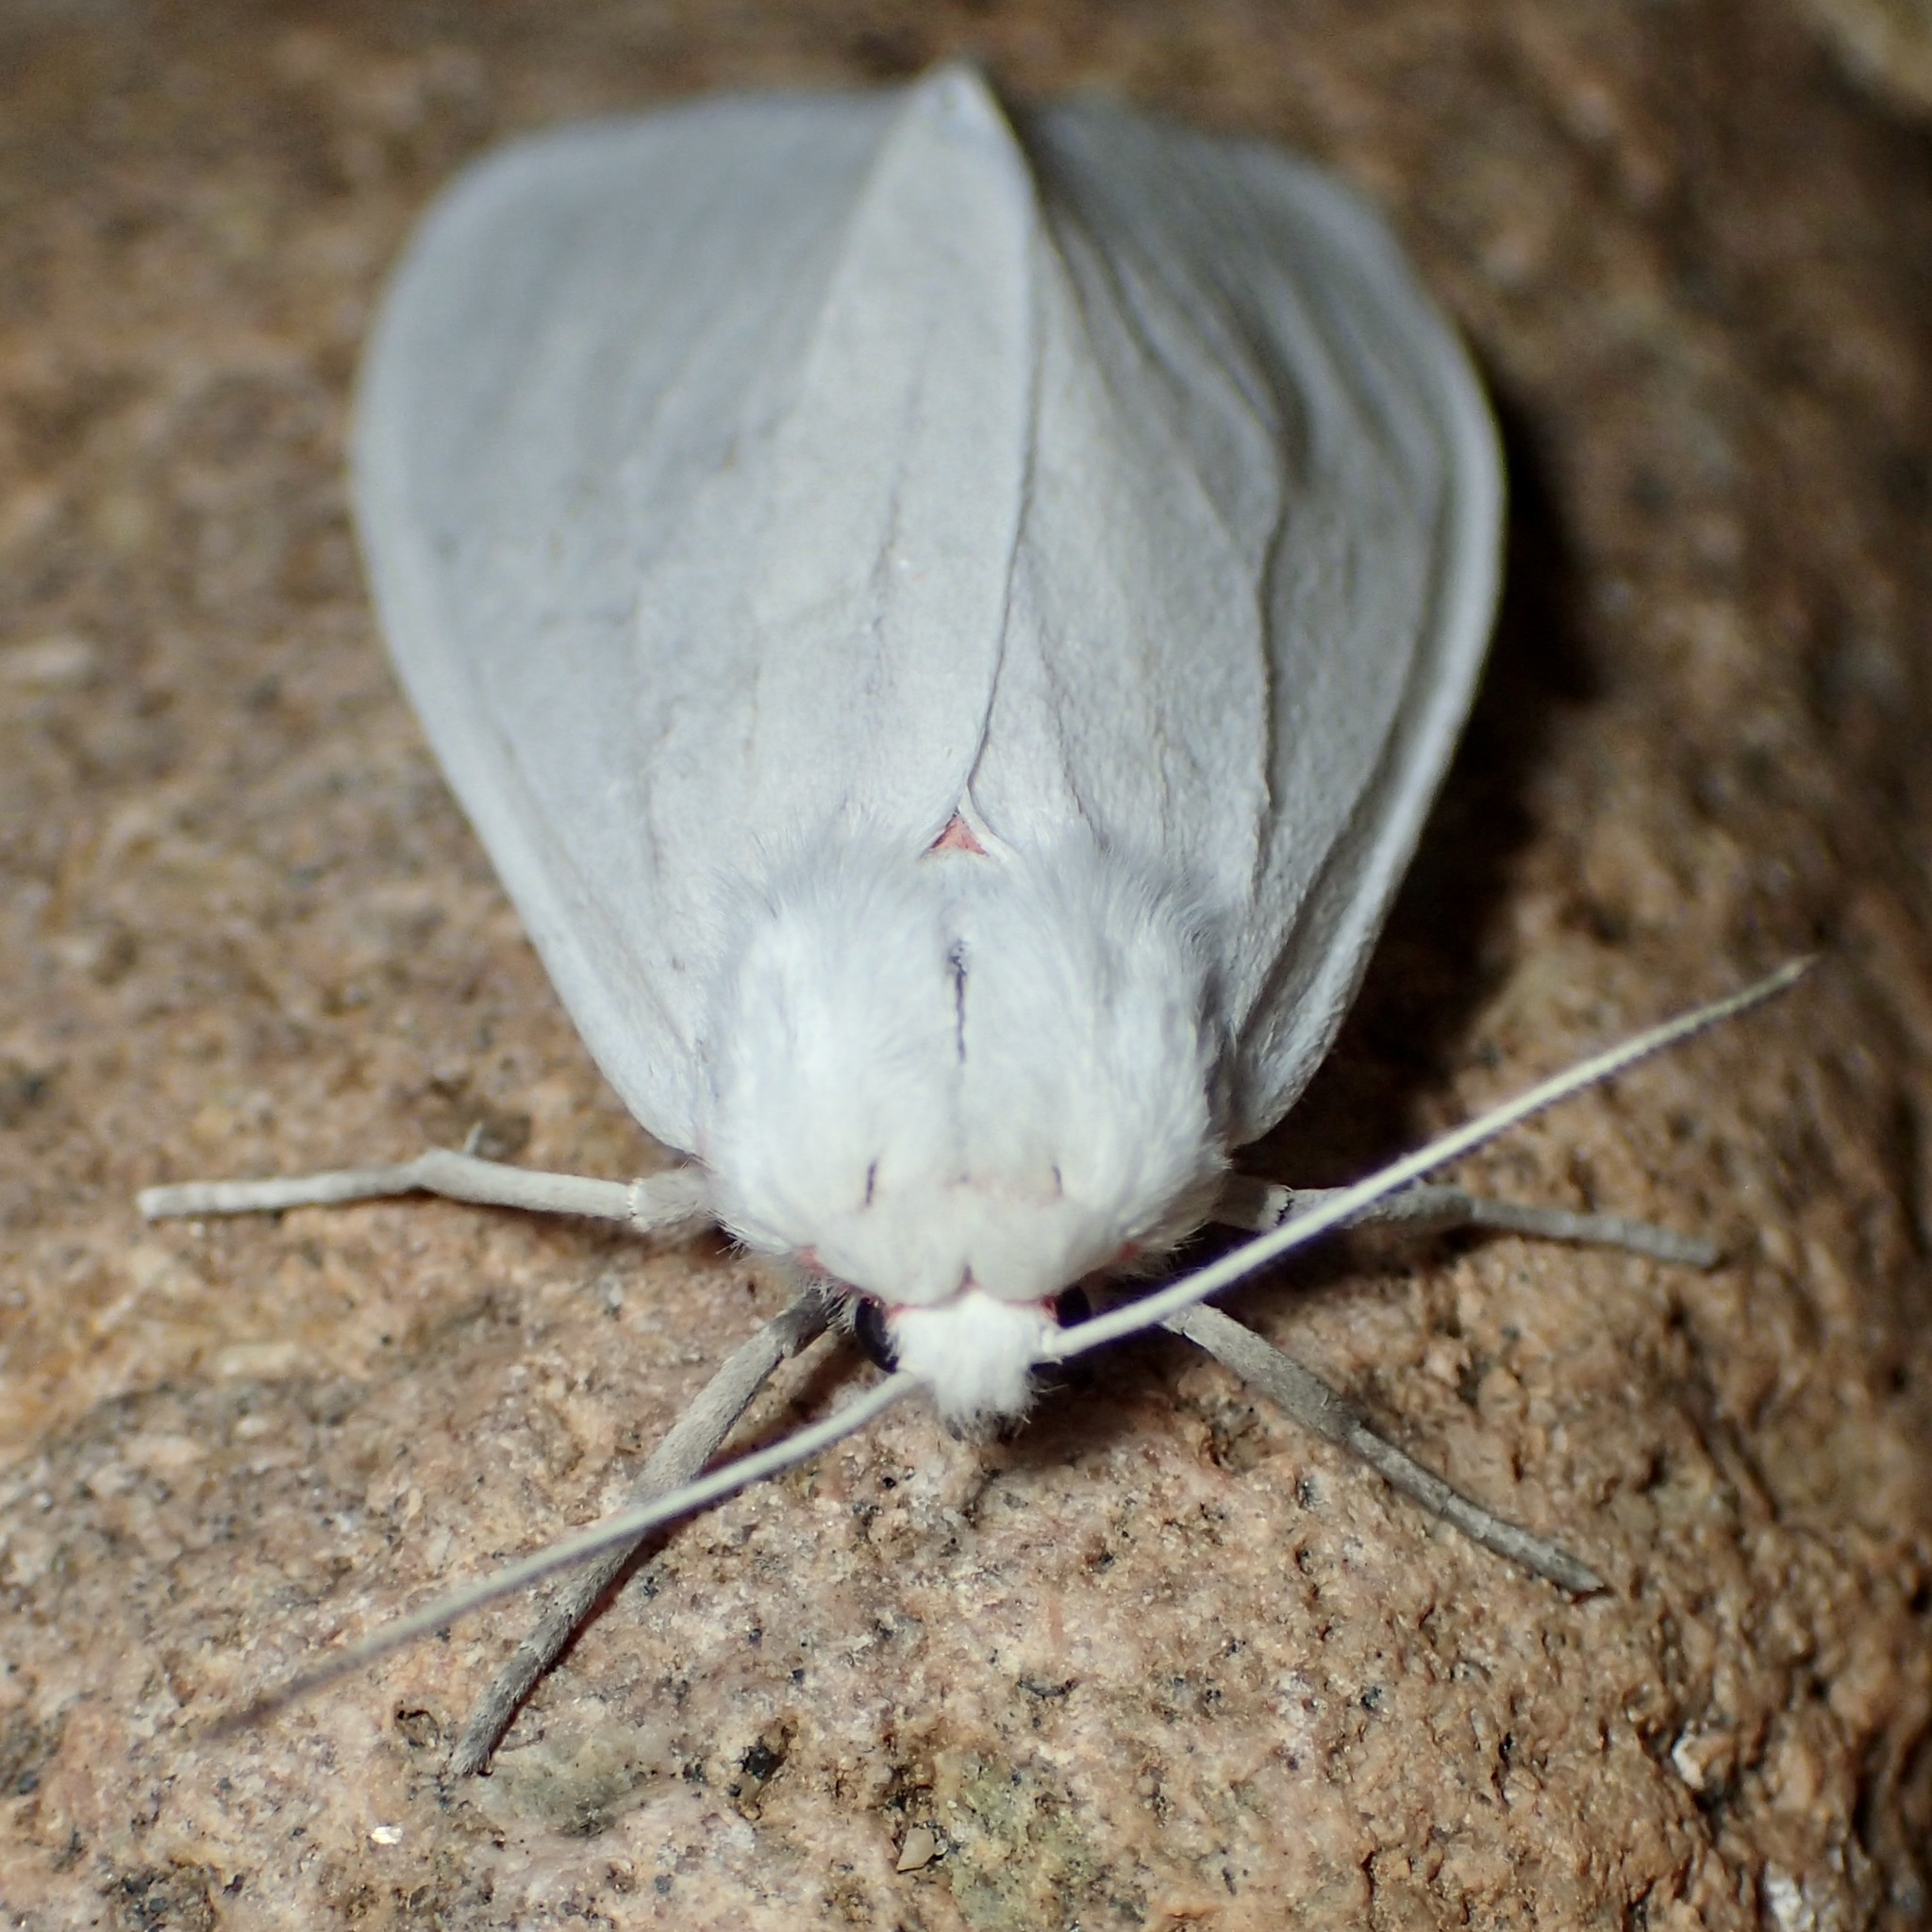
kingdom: Animalia
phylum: Arthropoda
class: Insecta
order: Lepidoptera
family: Erebidae
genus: Euchaetes
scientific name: Euchaetes elegans
